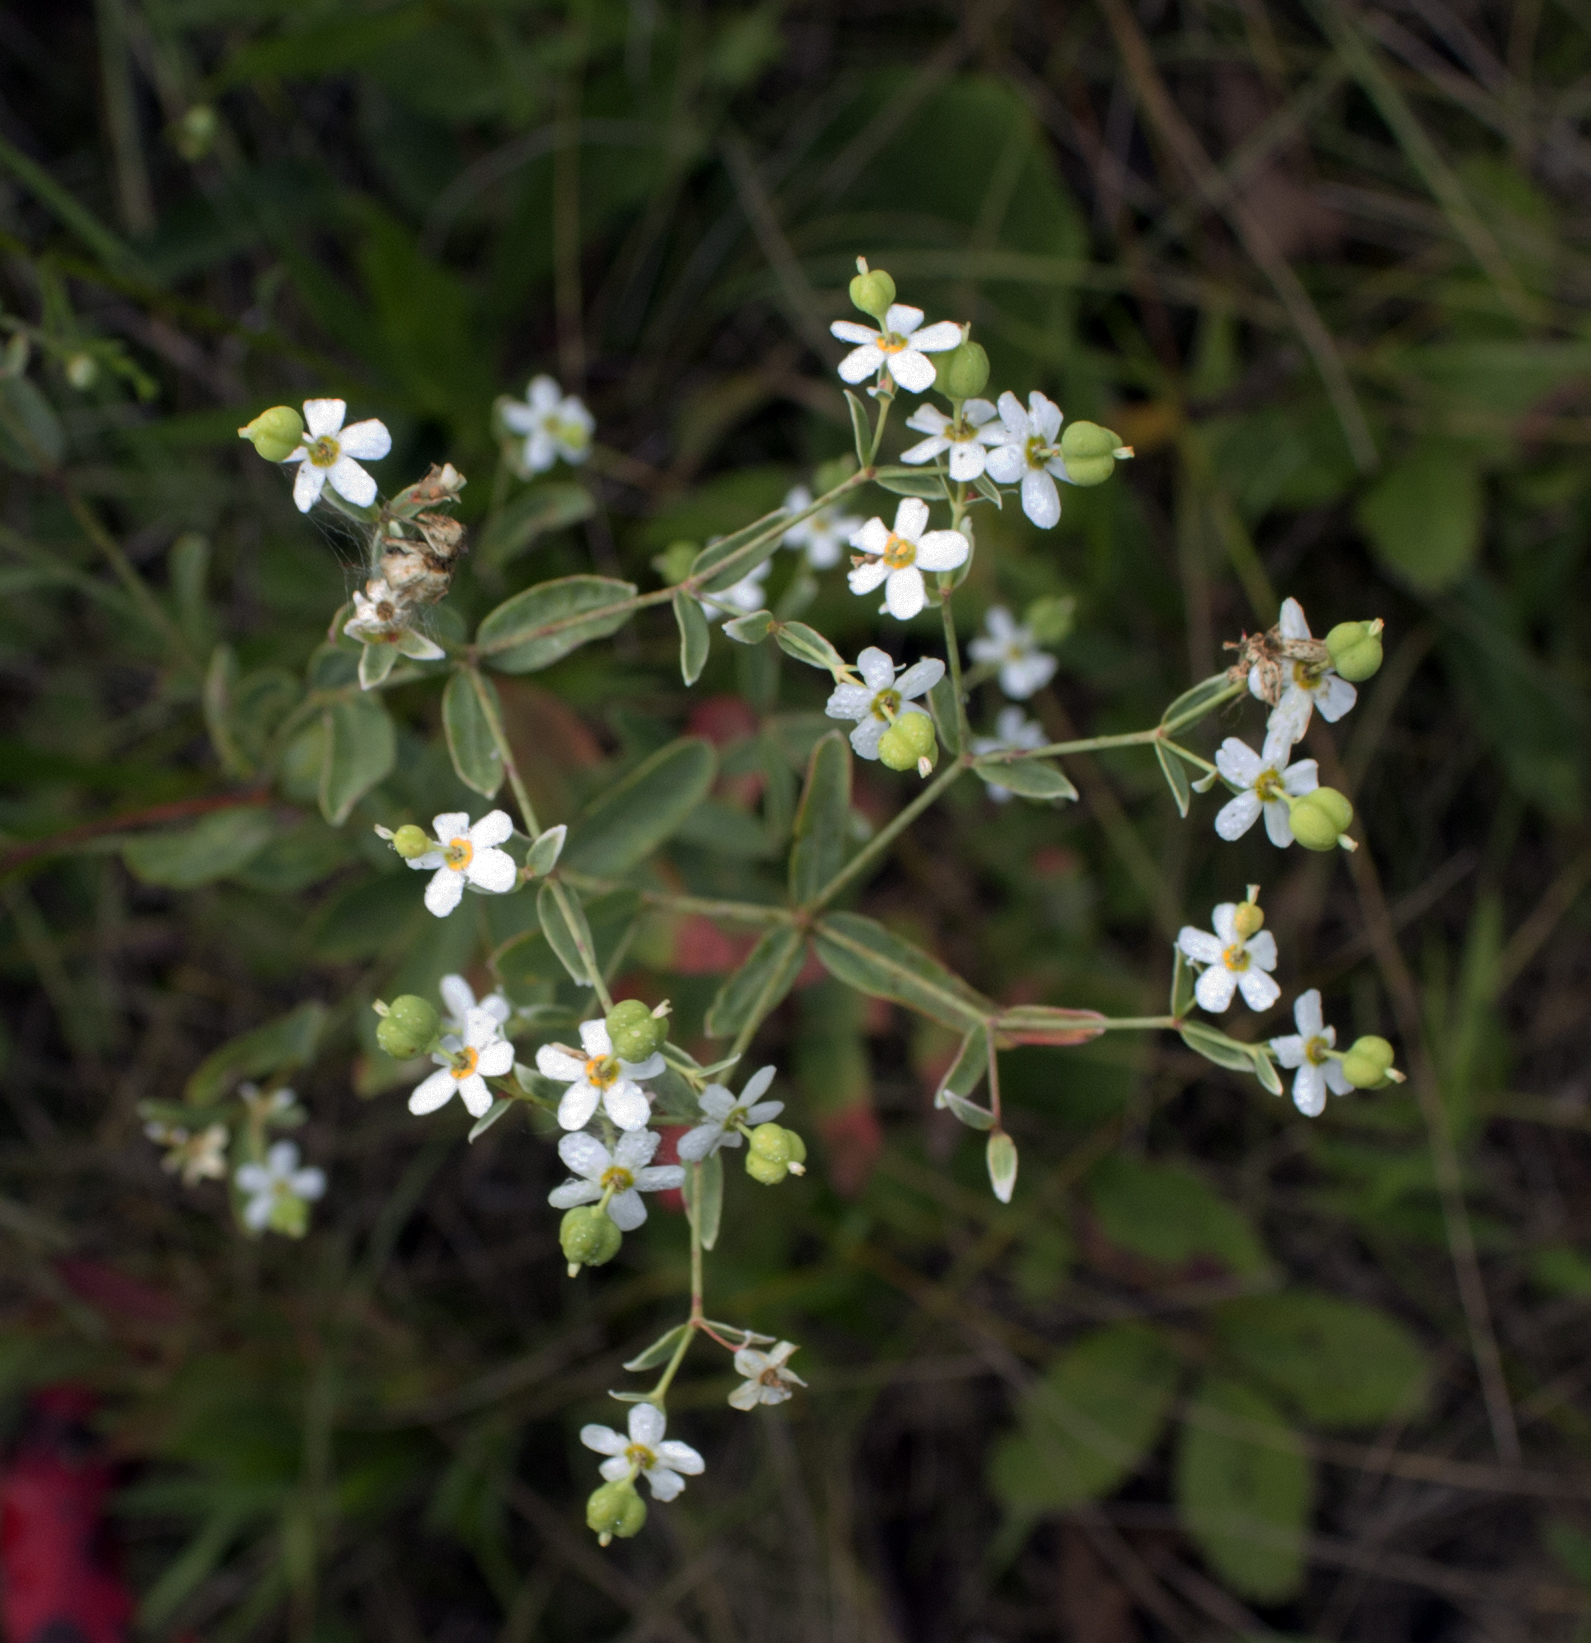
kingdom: Plantae
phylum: Tracheophyta
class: Magnoliopsida
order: Malpighiales
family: Euphorbiaceae
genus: Euphorbia
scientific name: Euphorbia corollata
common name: Flowering spurge
